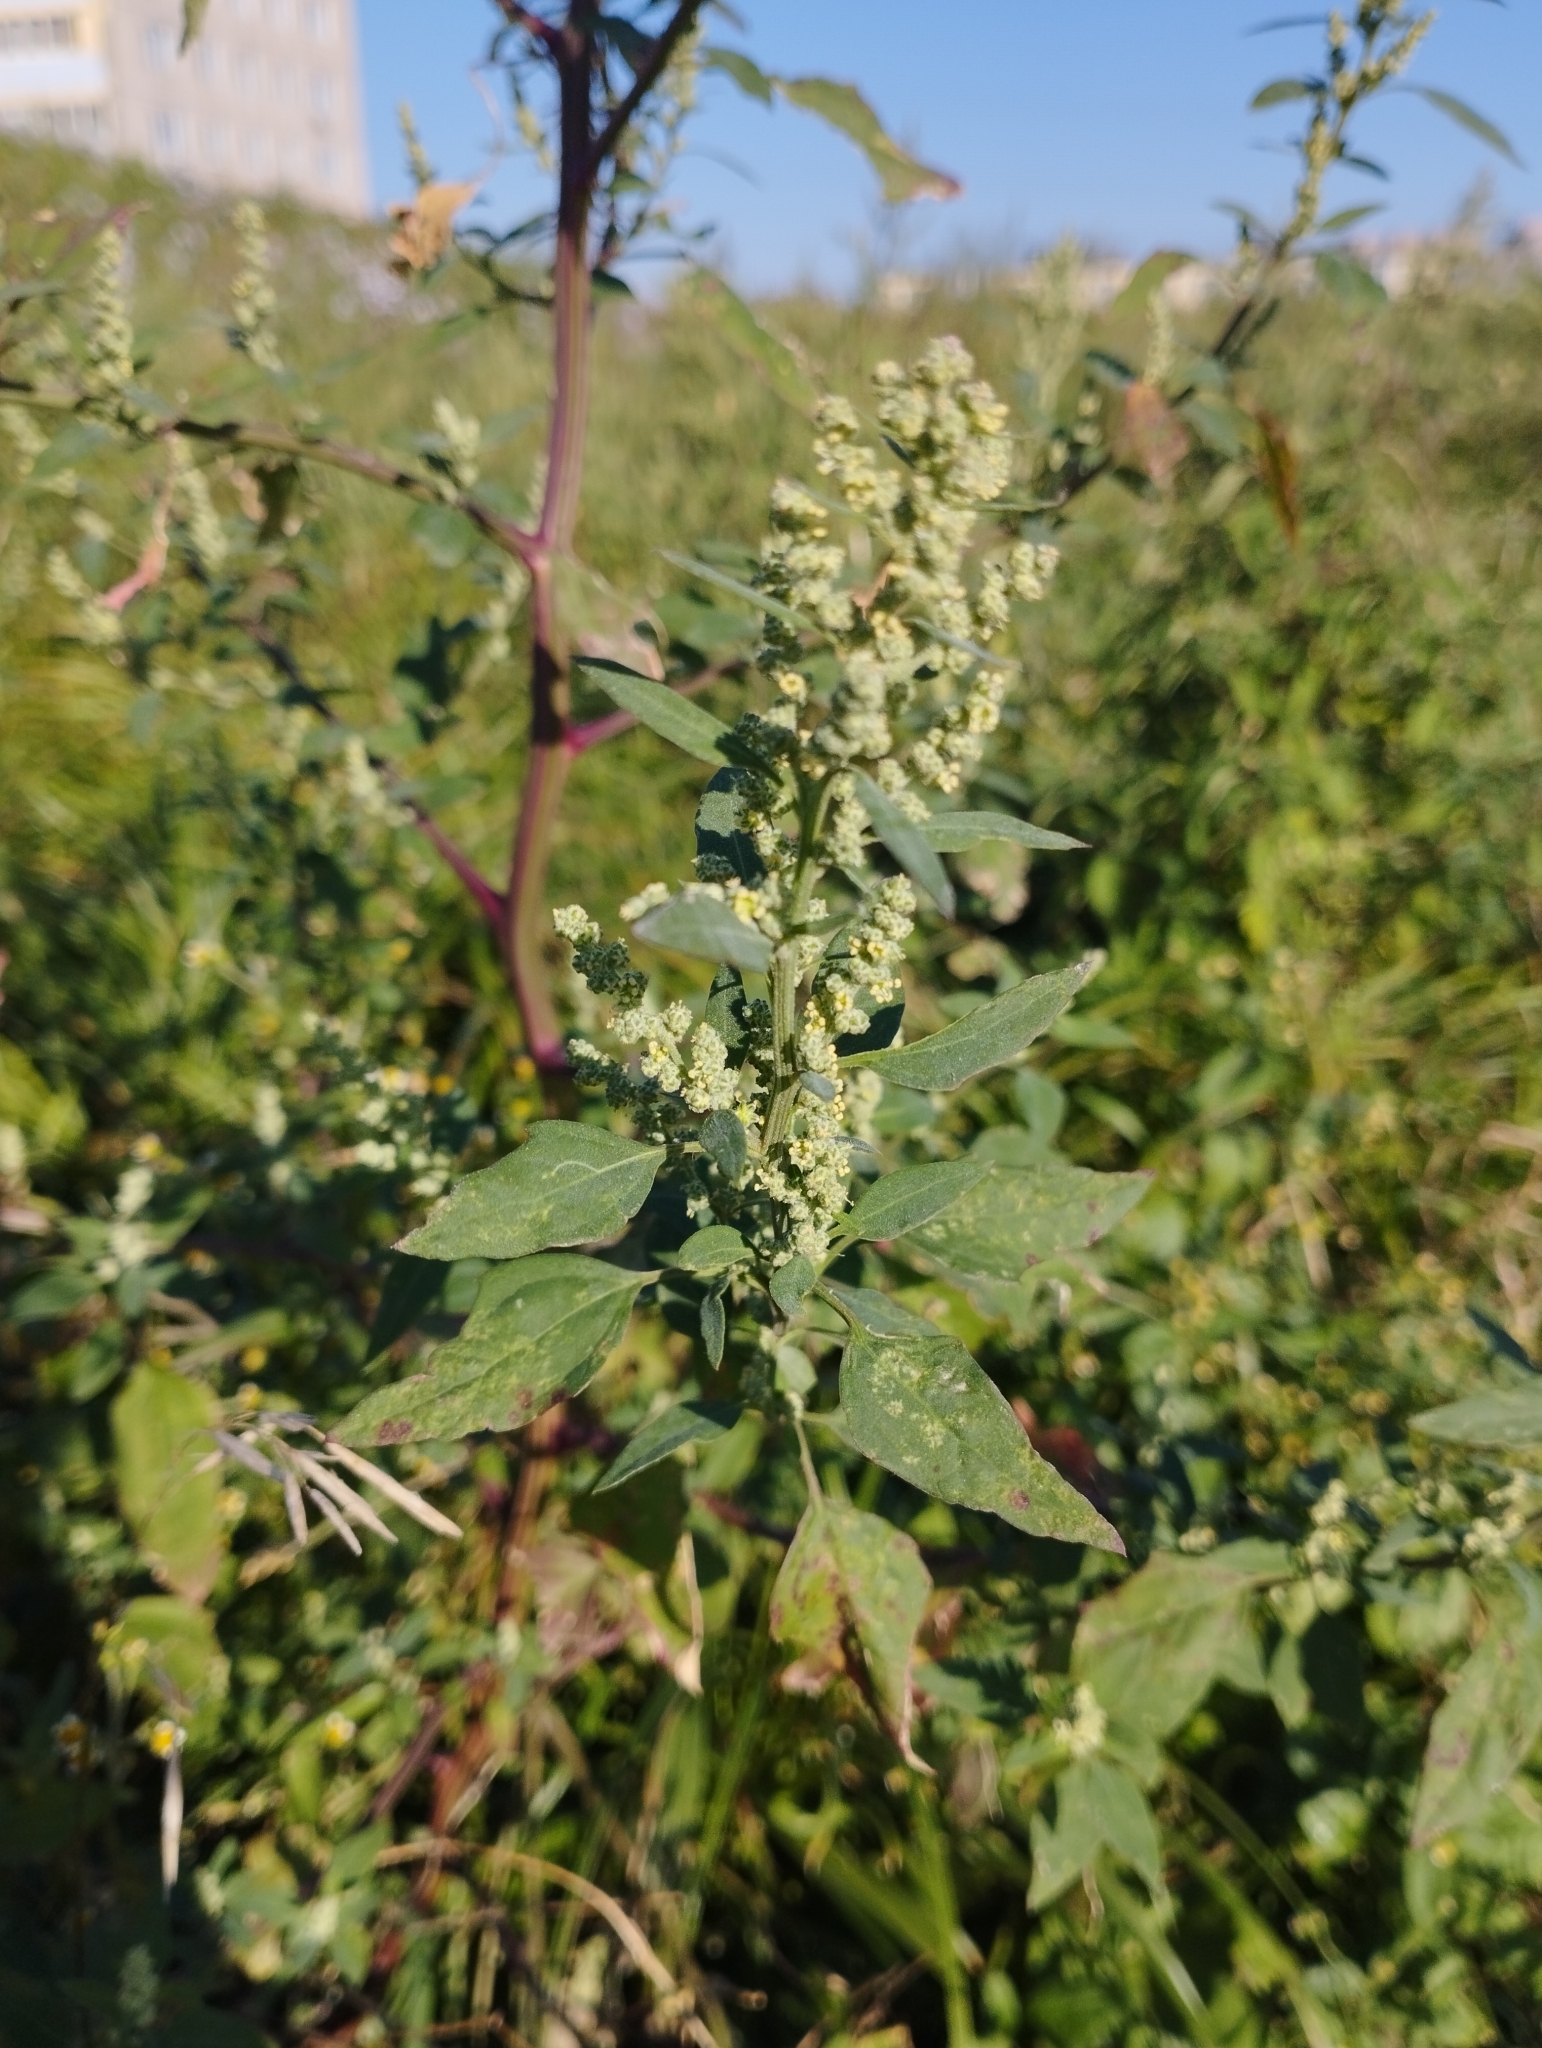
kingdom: Plantae
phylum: Tracheophyta
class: Magnoliopsida
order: Caryophyllales
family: Amaranthaceae
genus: Chenopodium
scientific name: Chenopodium album
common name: Fat-hen
